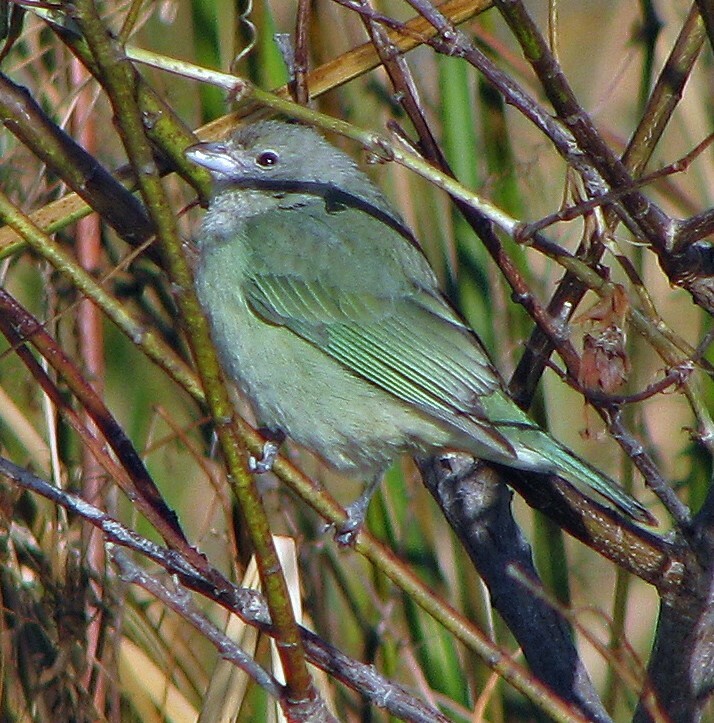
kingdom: Animalia
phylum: Chordata
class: Aves
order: Passeriformes
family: Thraupidae
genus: Thraupis
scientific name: Thraupis sayaca
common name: Sayaca tanager
